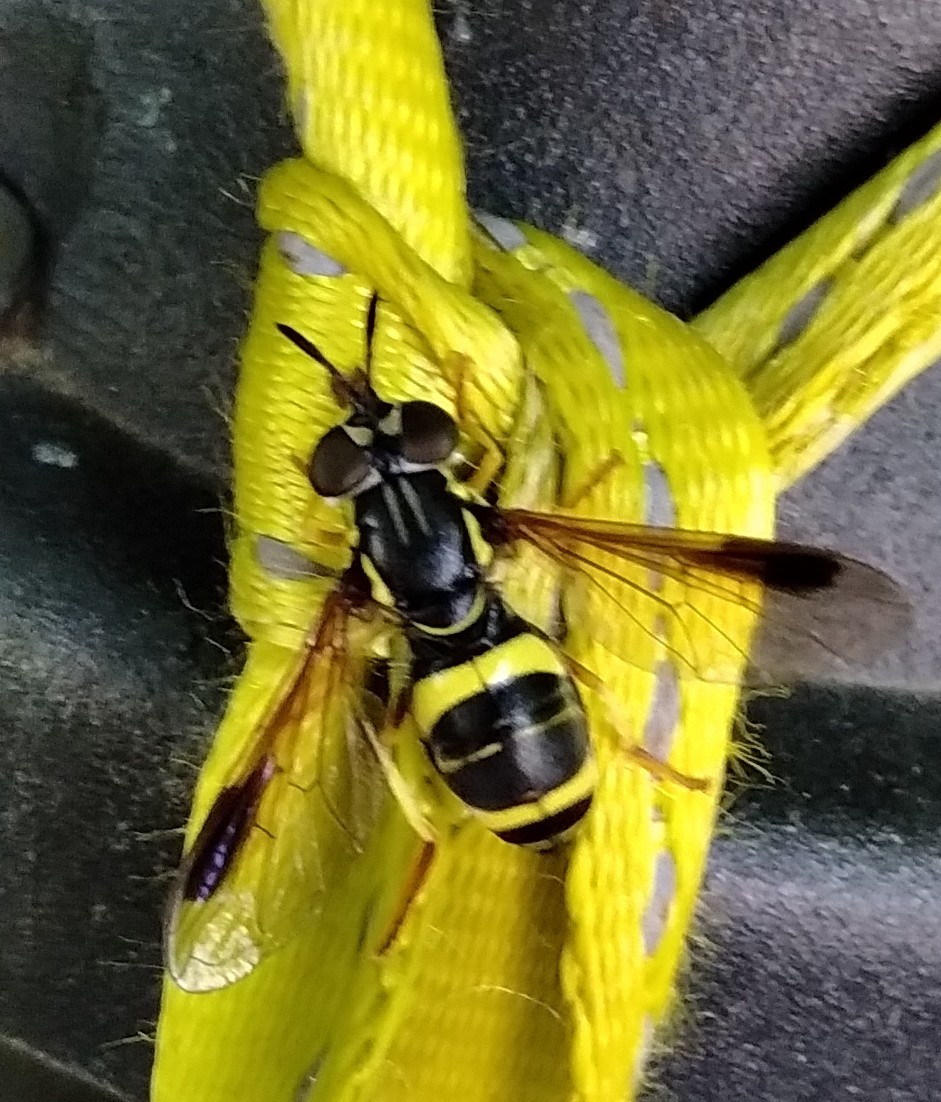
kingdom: Animalia
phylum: Arthropoda
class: Insecta
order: Diptera
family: Syrphidae
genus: Chrysotoxum
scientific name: Chrysotoxum bicincta
